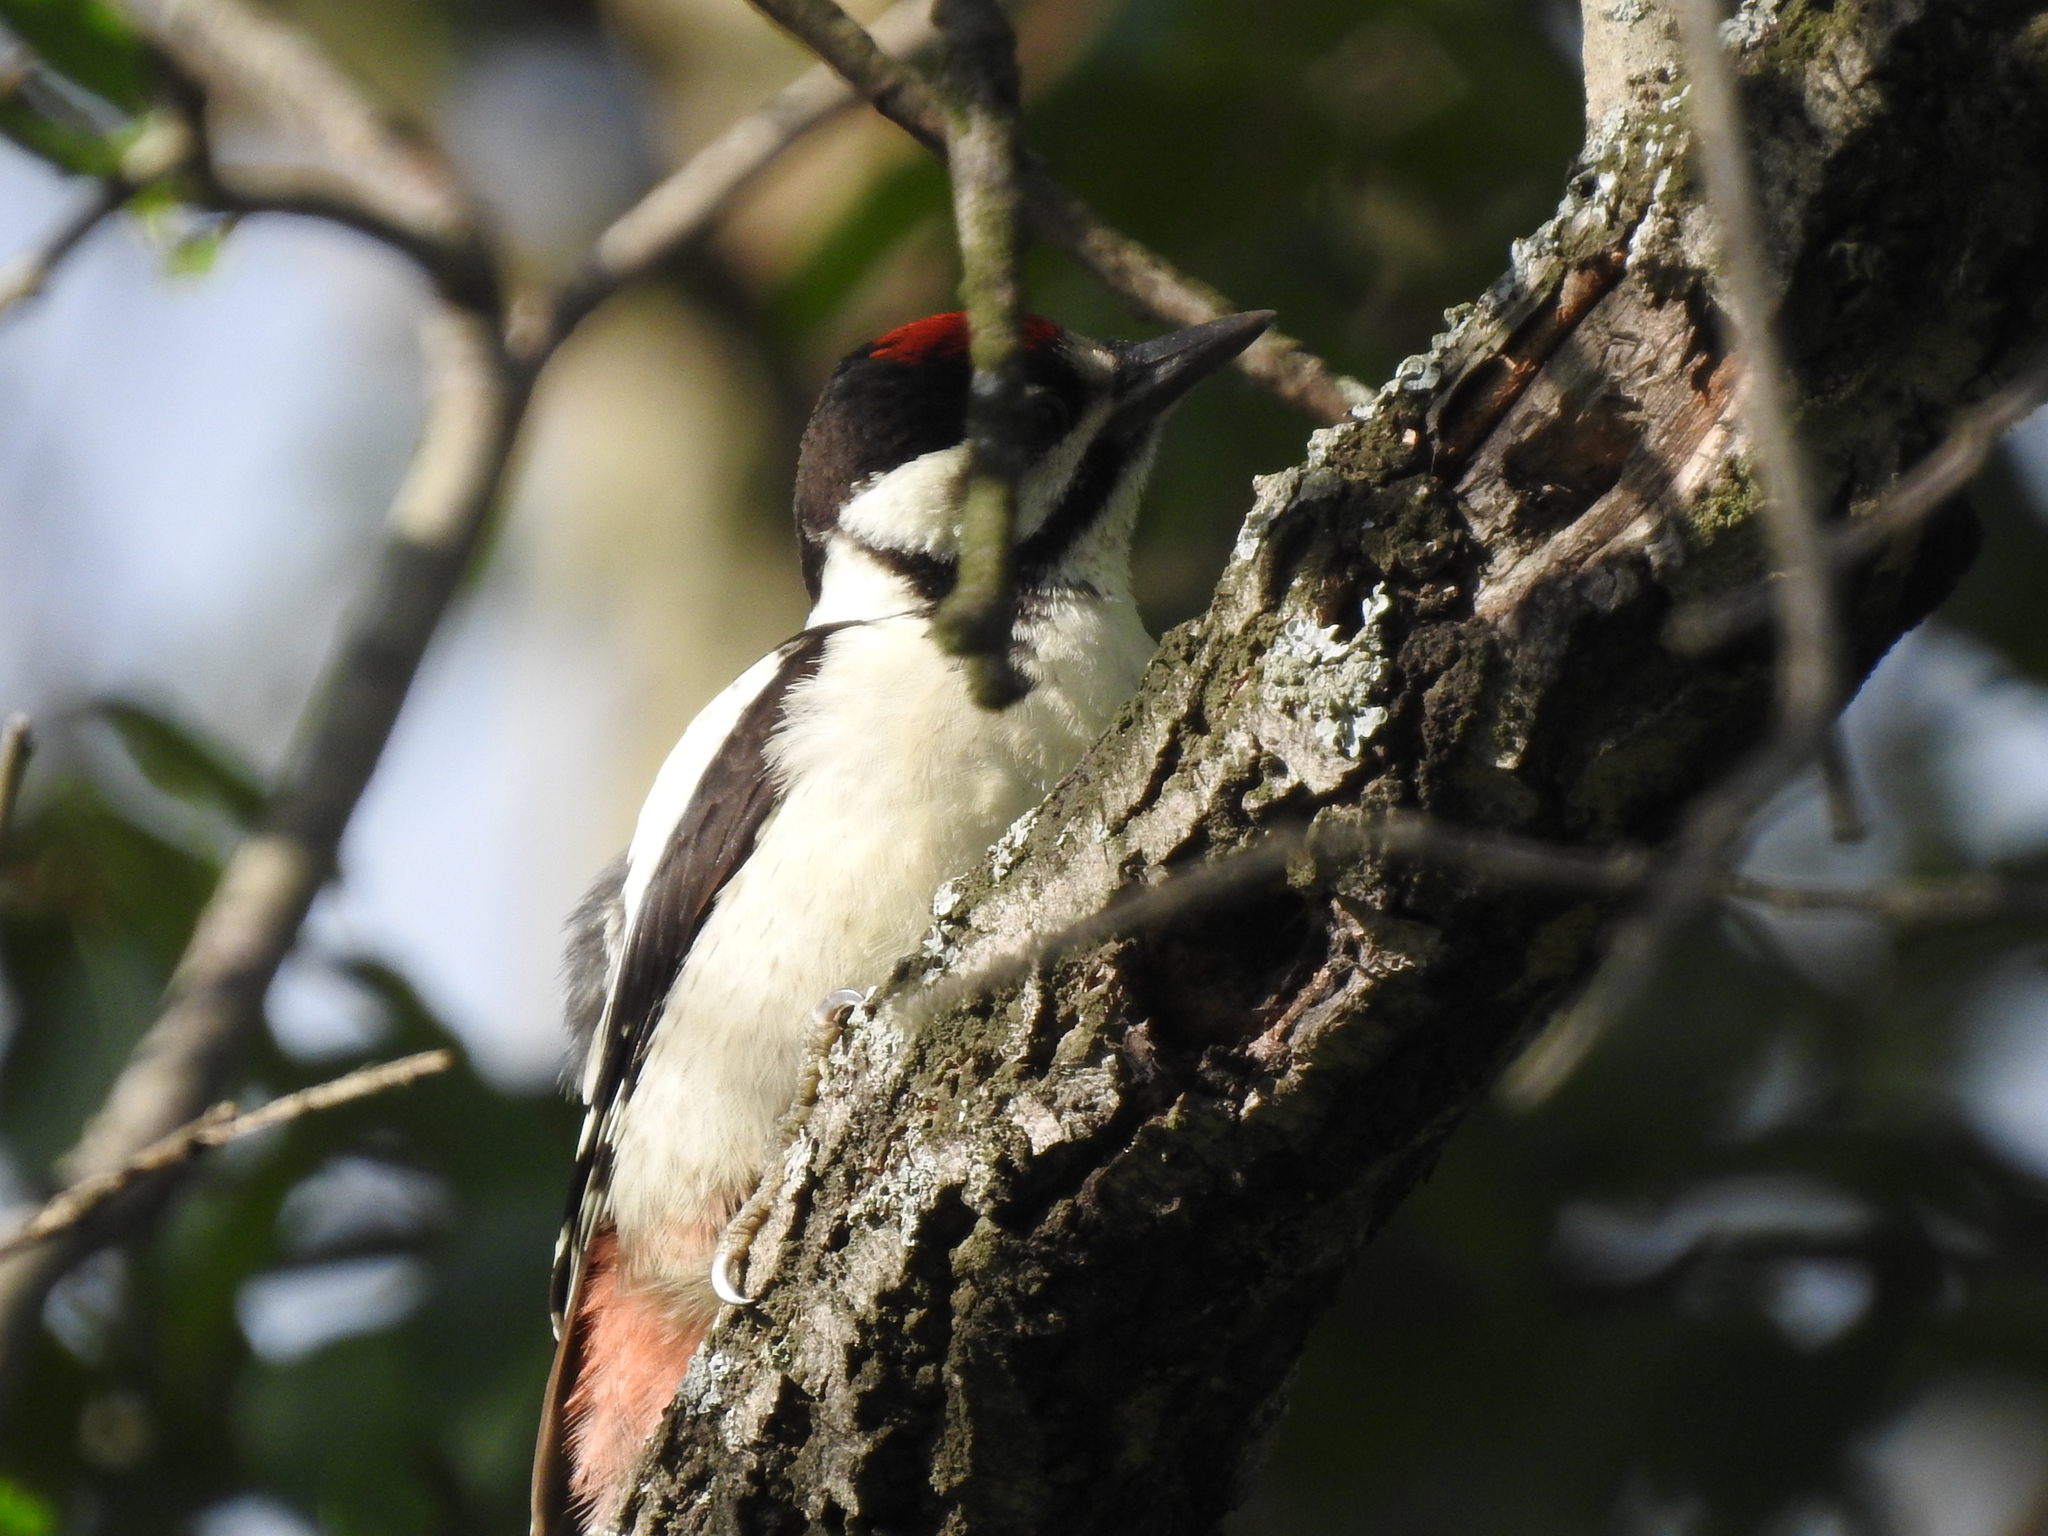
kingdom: Animalia
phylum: Chordata
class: Aves
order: Piciformes
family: Picidae
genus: Dendrocopos
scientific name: Dendrocopos major
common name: Great spotted woodpecker
